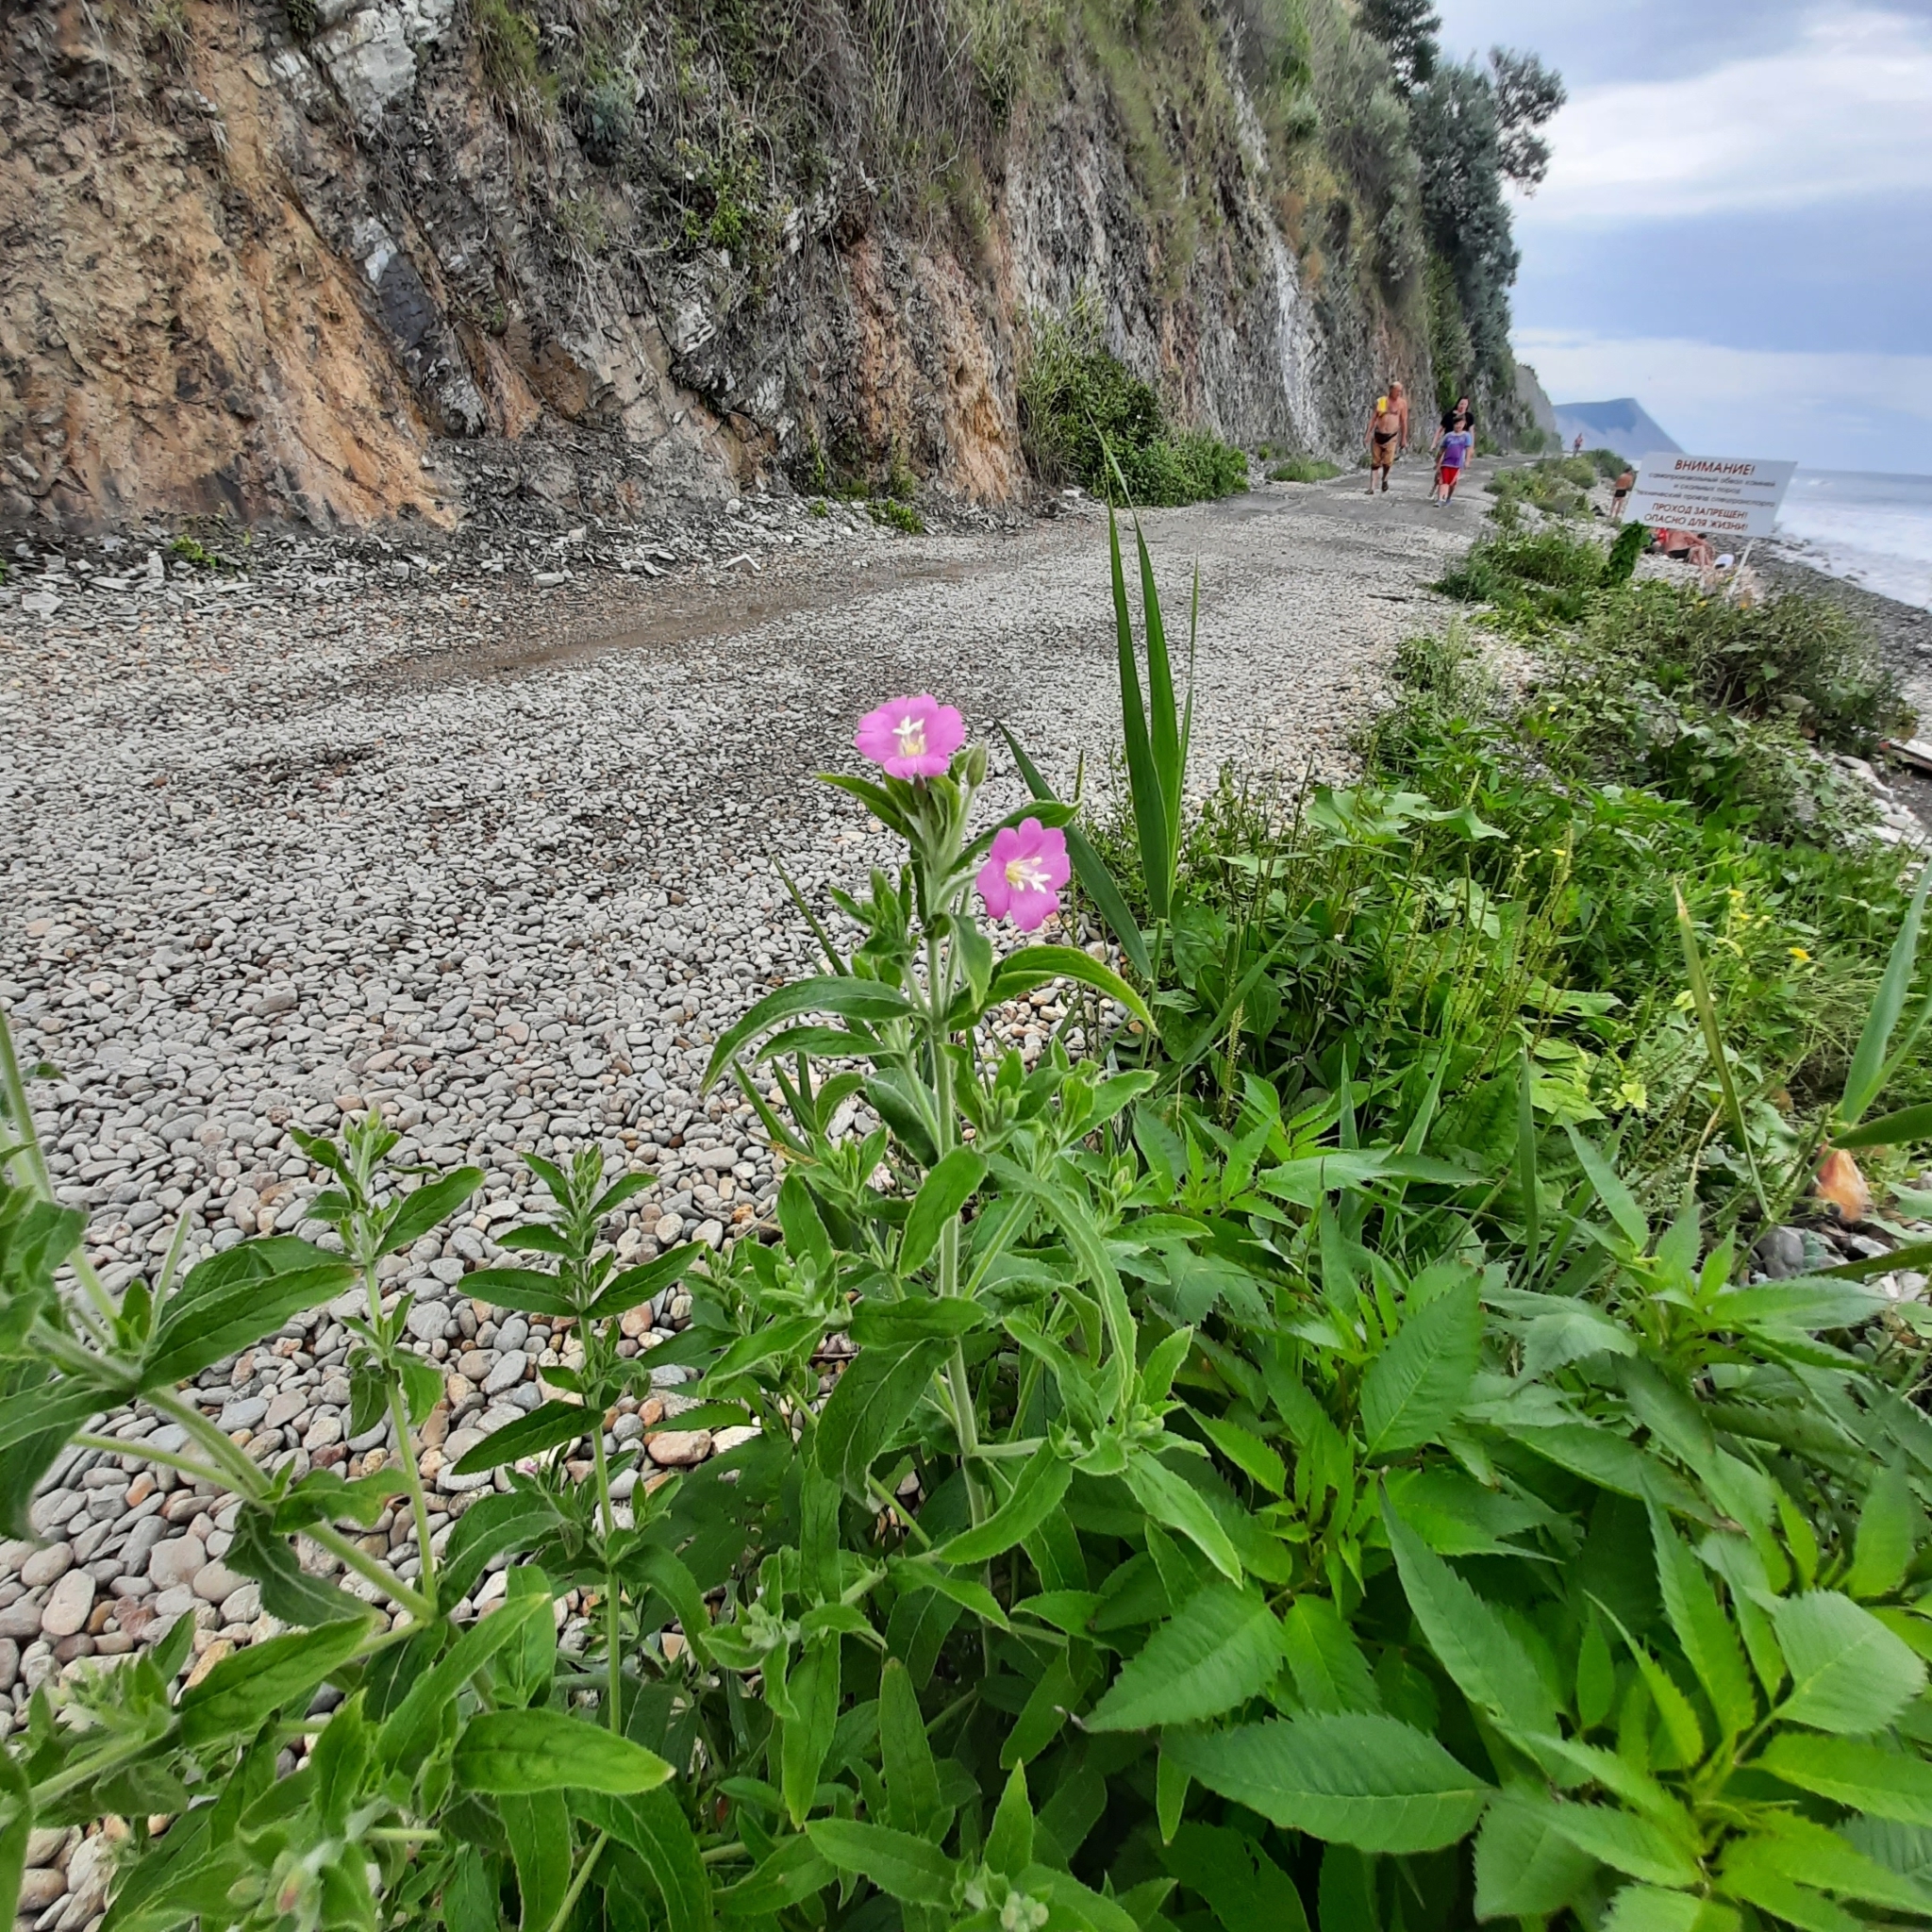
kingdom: Plantae
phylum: Tracheophyta
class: Magnoliopsida
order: Myrtales
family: Onagraceae
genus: Epilobium
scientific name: Epilobium hirsutum
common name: Great willowherb
